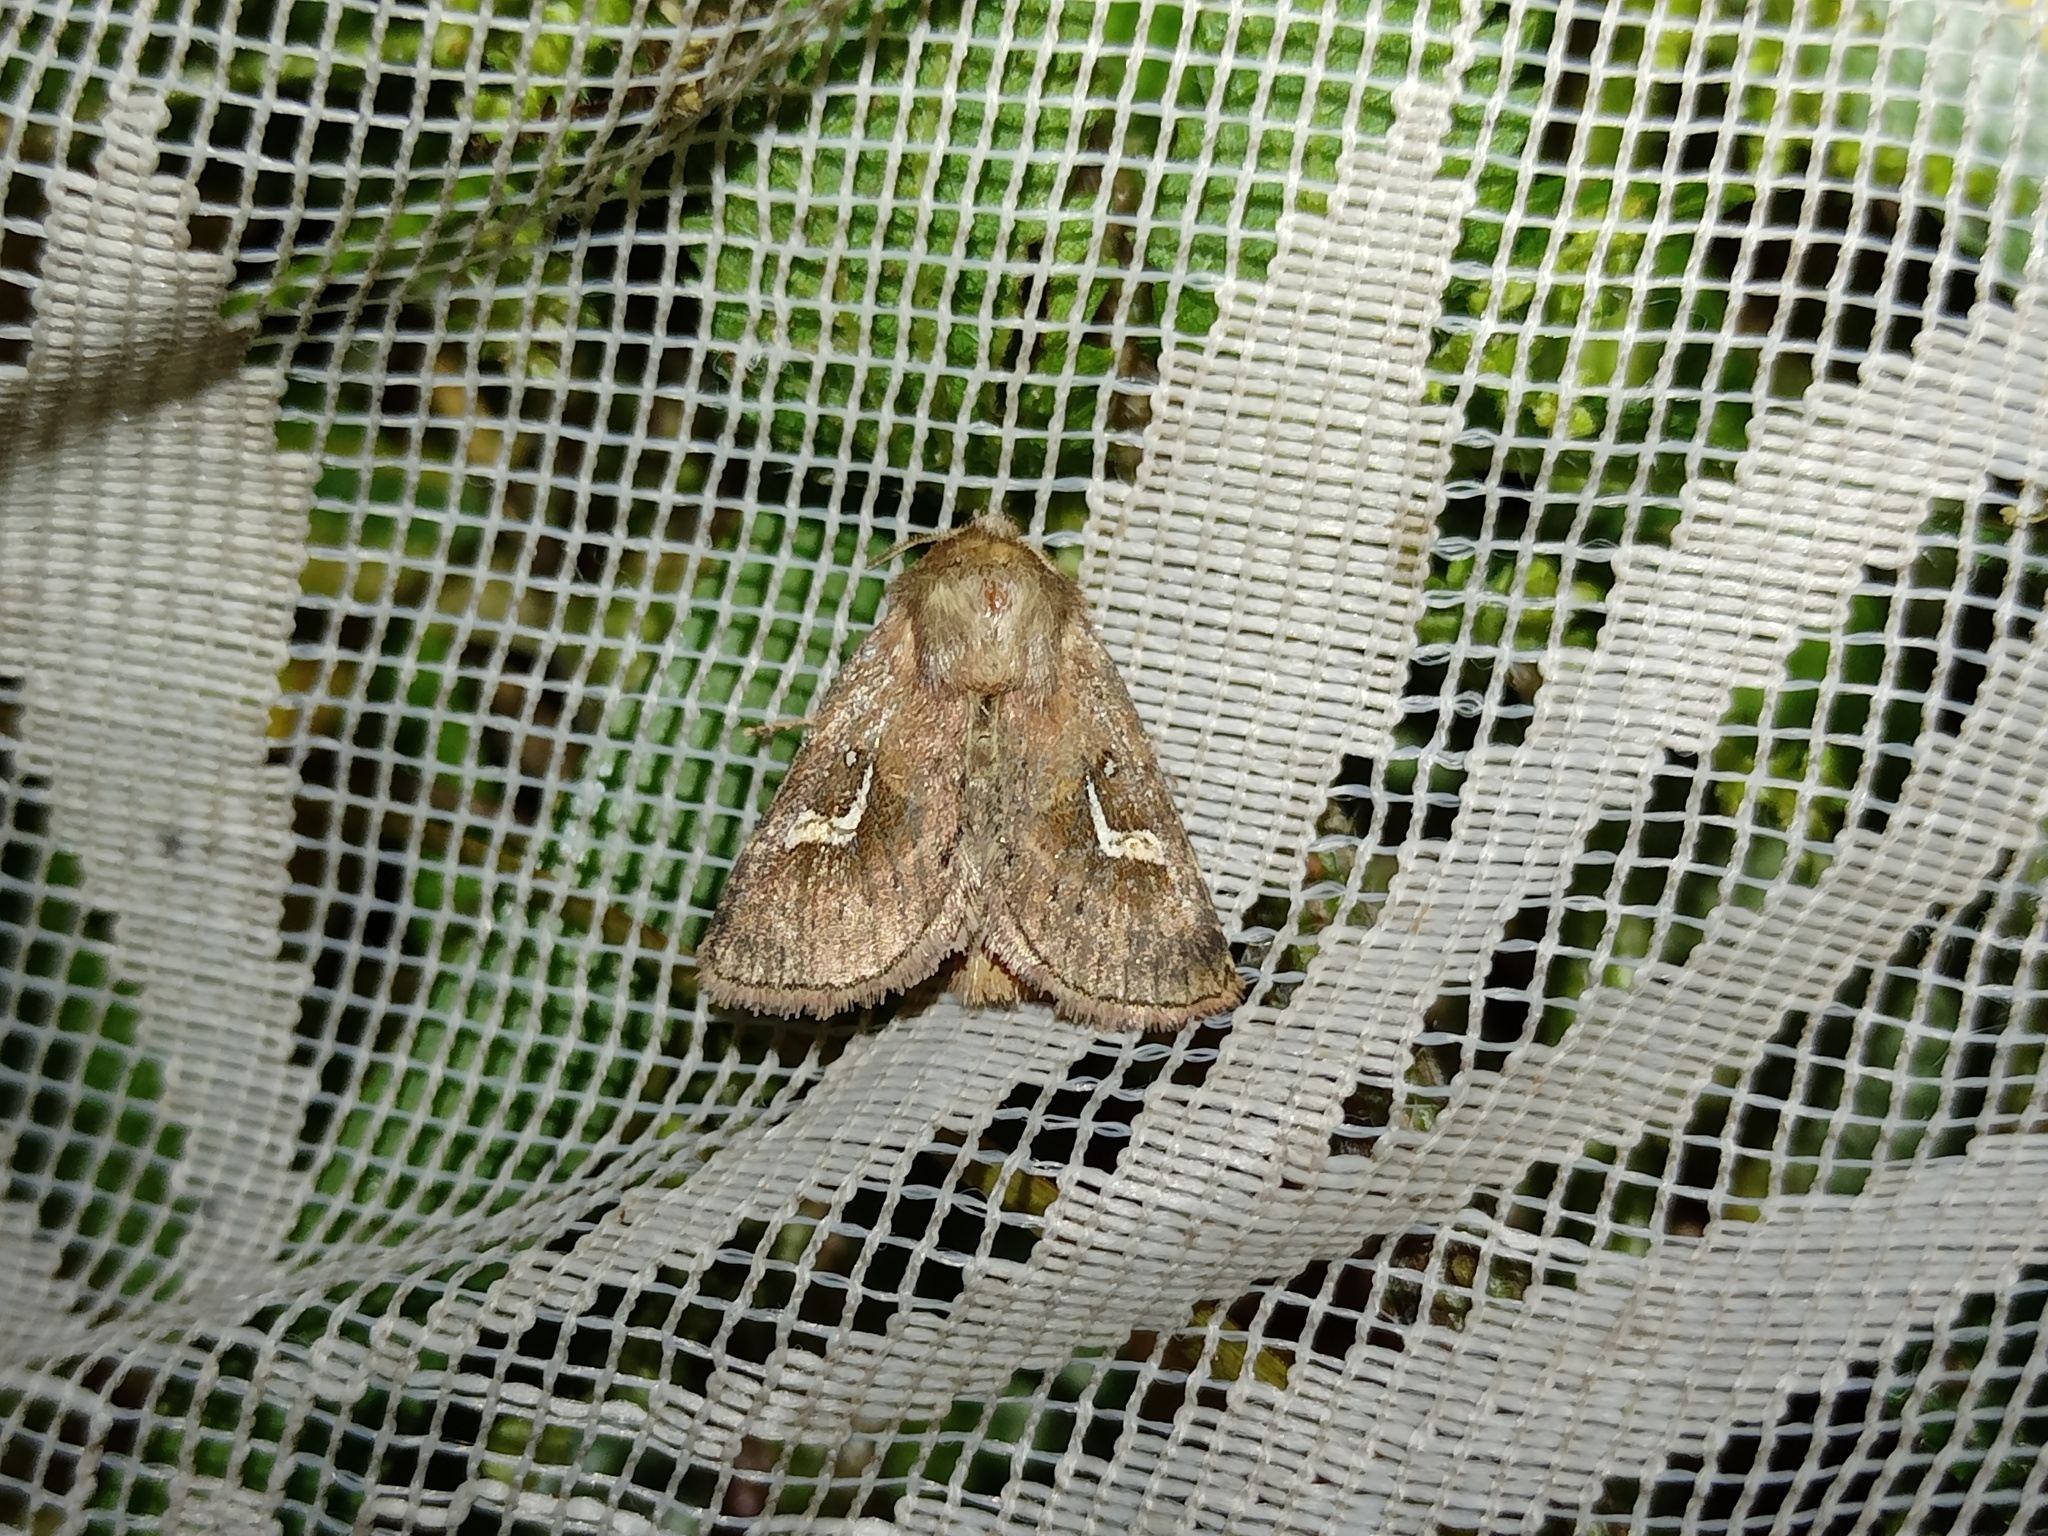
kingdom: Animalia
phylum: Arthropoda
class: Insecta
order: Lepidoptera
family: Noctuidae
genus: Phragmatiphila
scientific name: Phragmatiphila nexa
